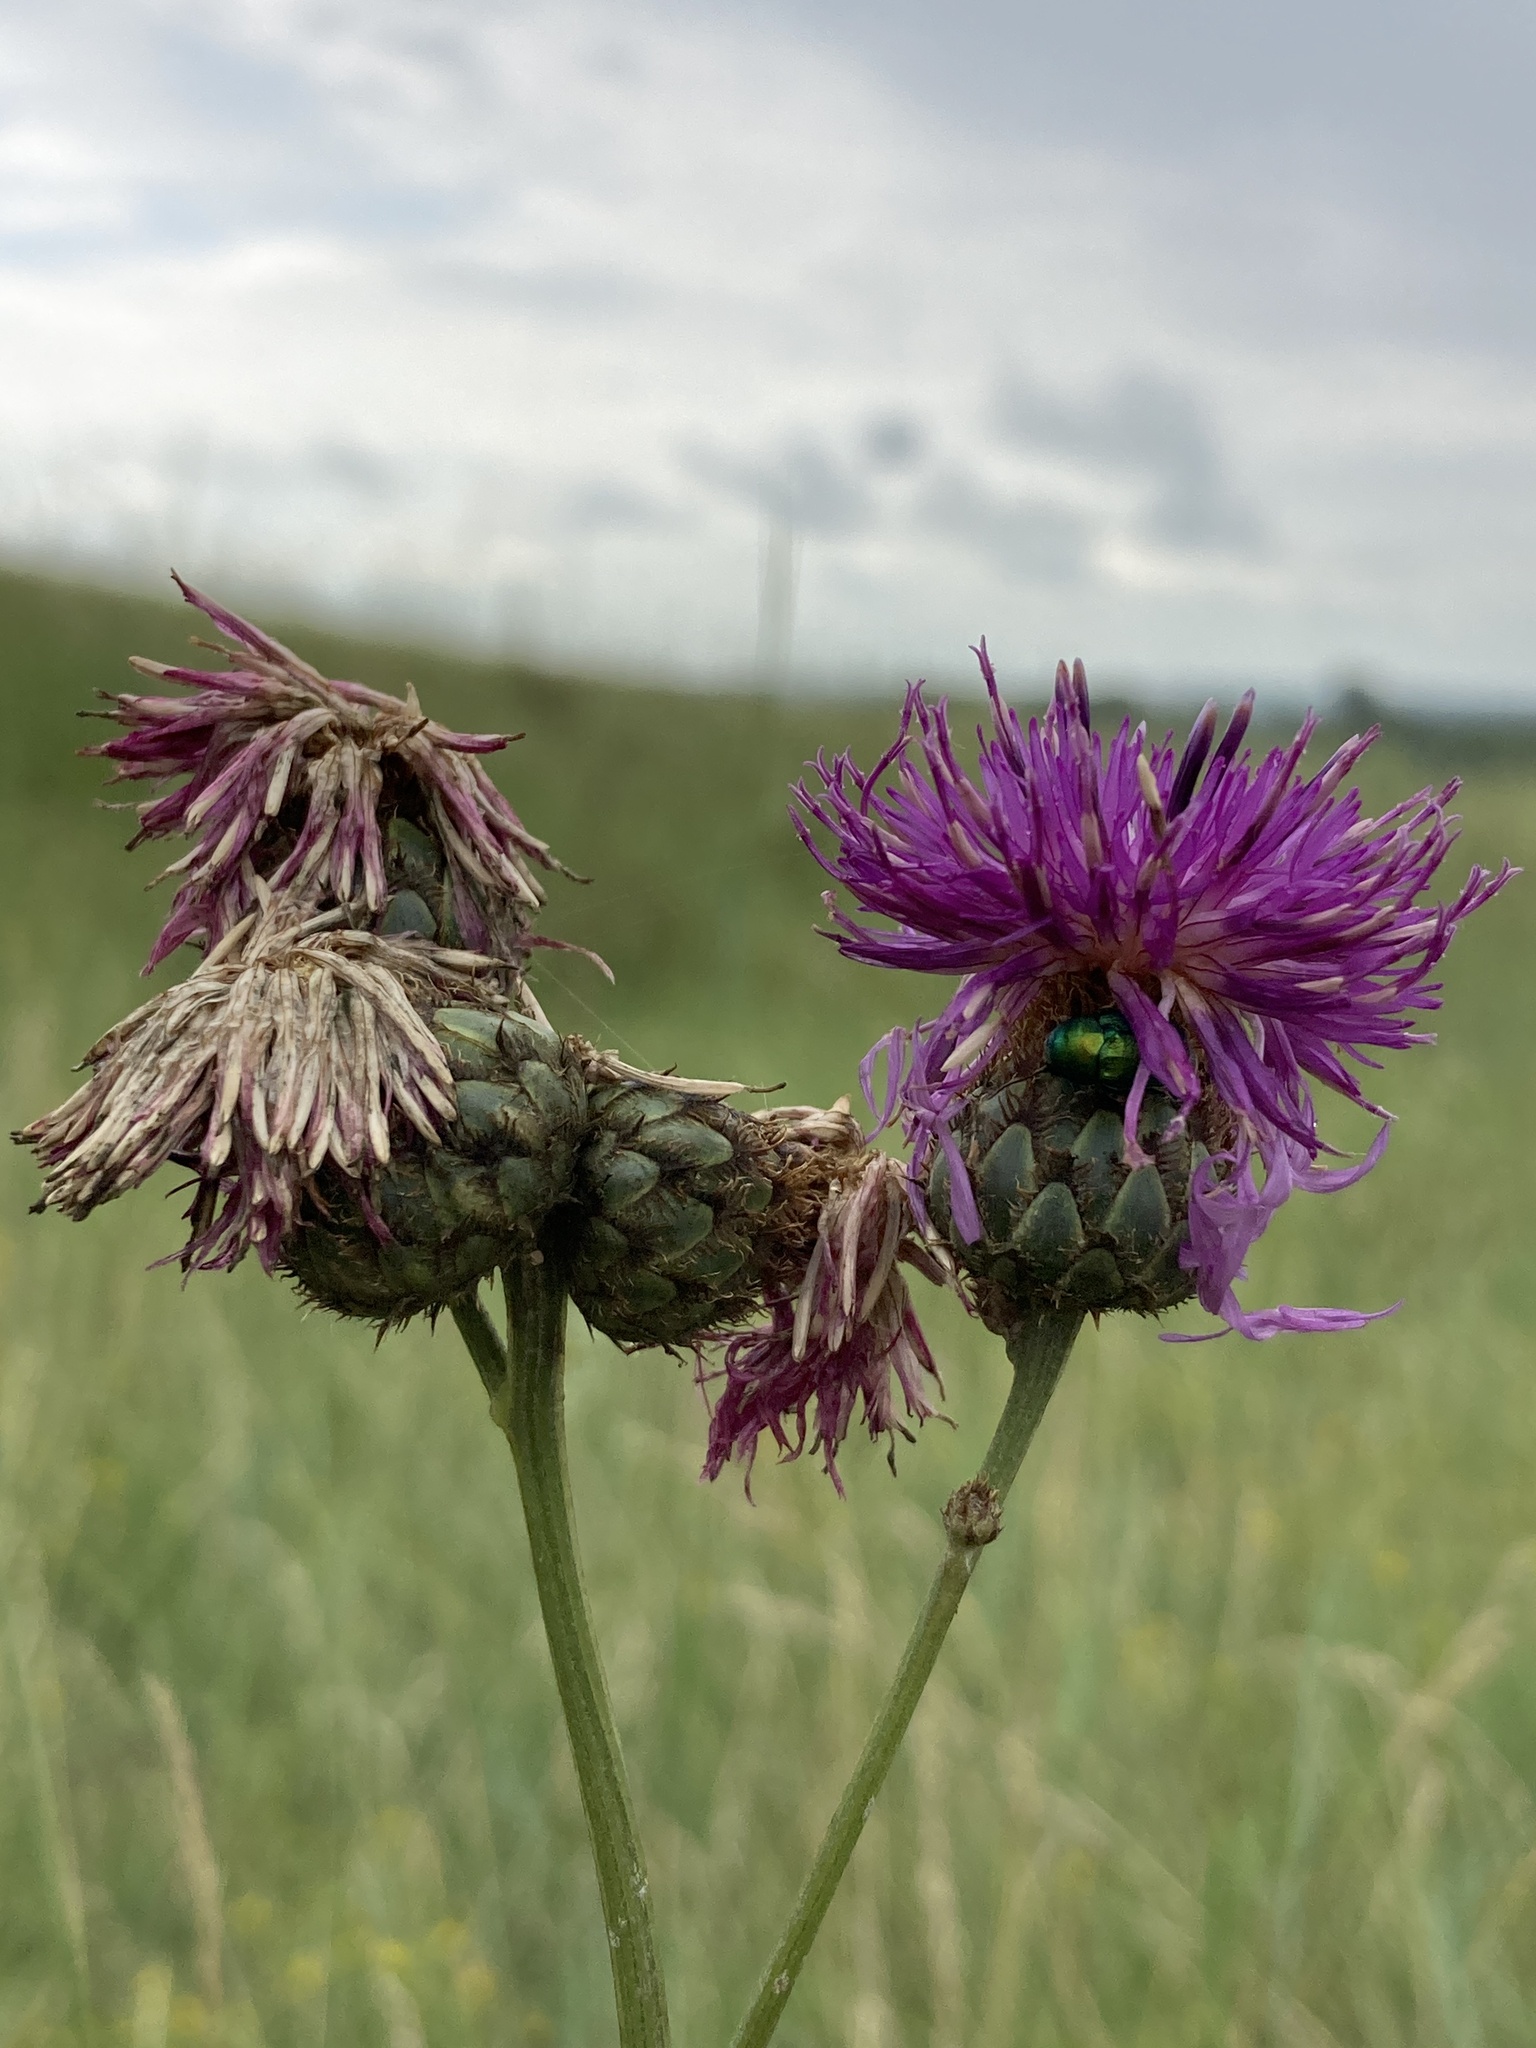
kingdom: Plantae
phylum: Tracheophyta
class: Magnoliopsida
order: Asterales
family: Asteraceae
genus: Centaurea
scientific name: Centaurea scabiosa
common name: Greater knapweed
